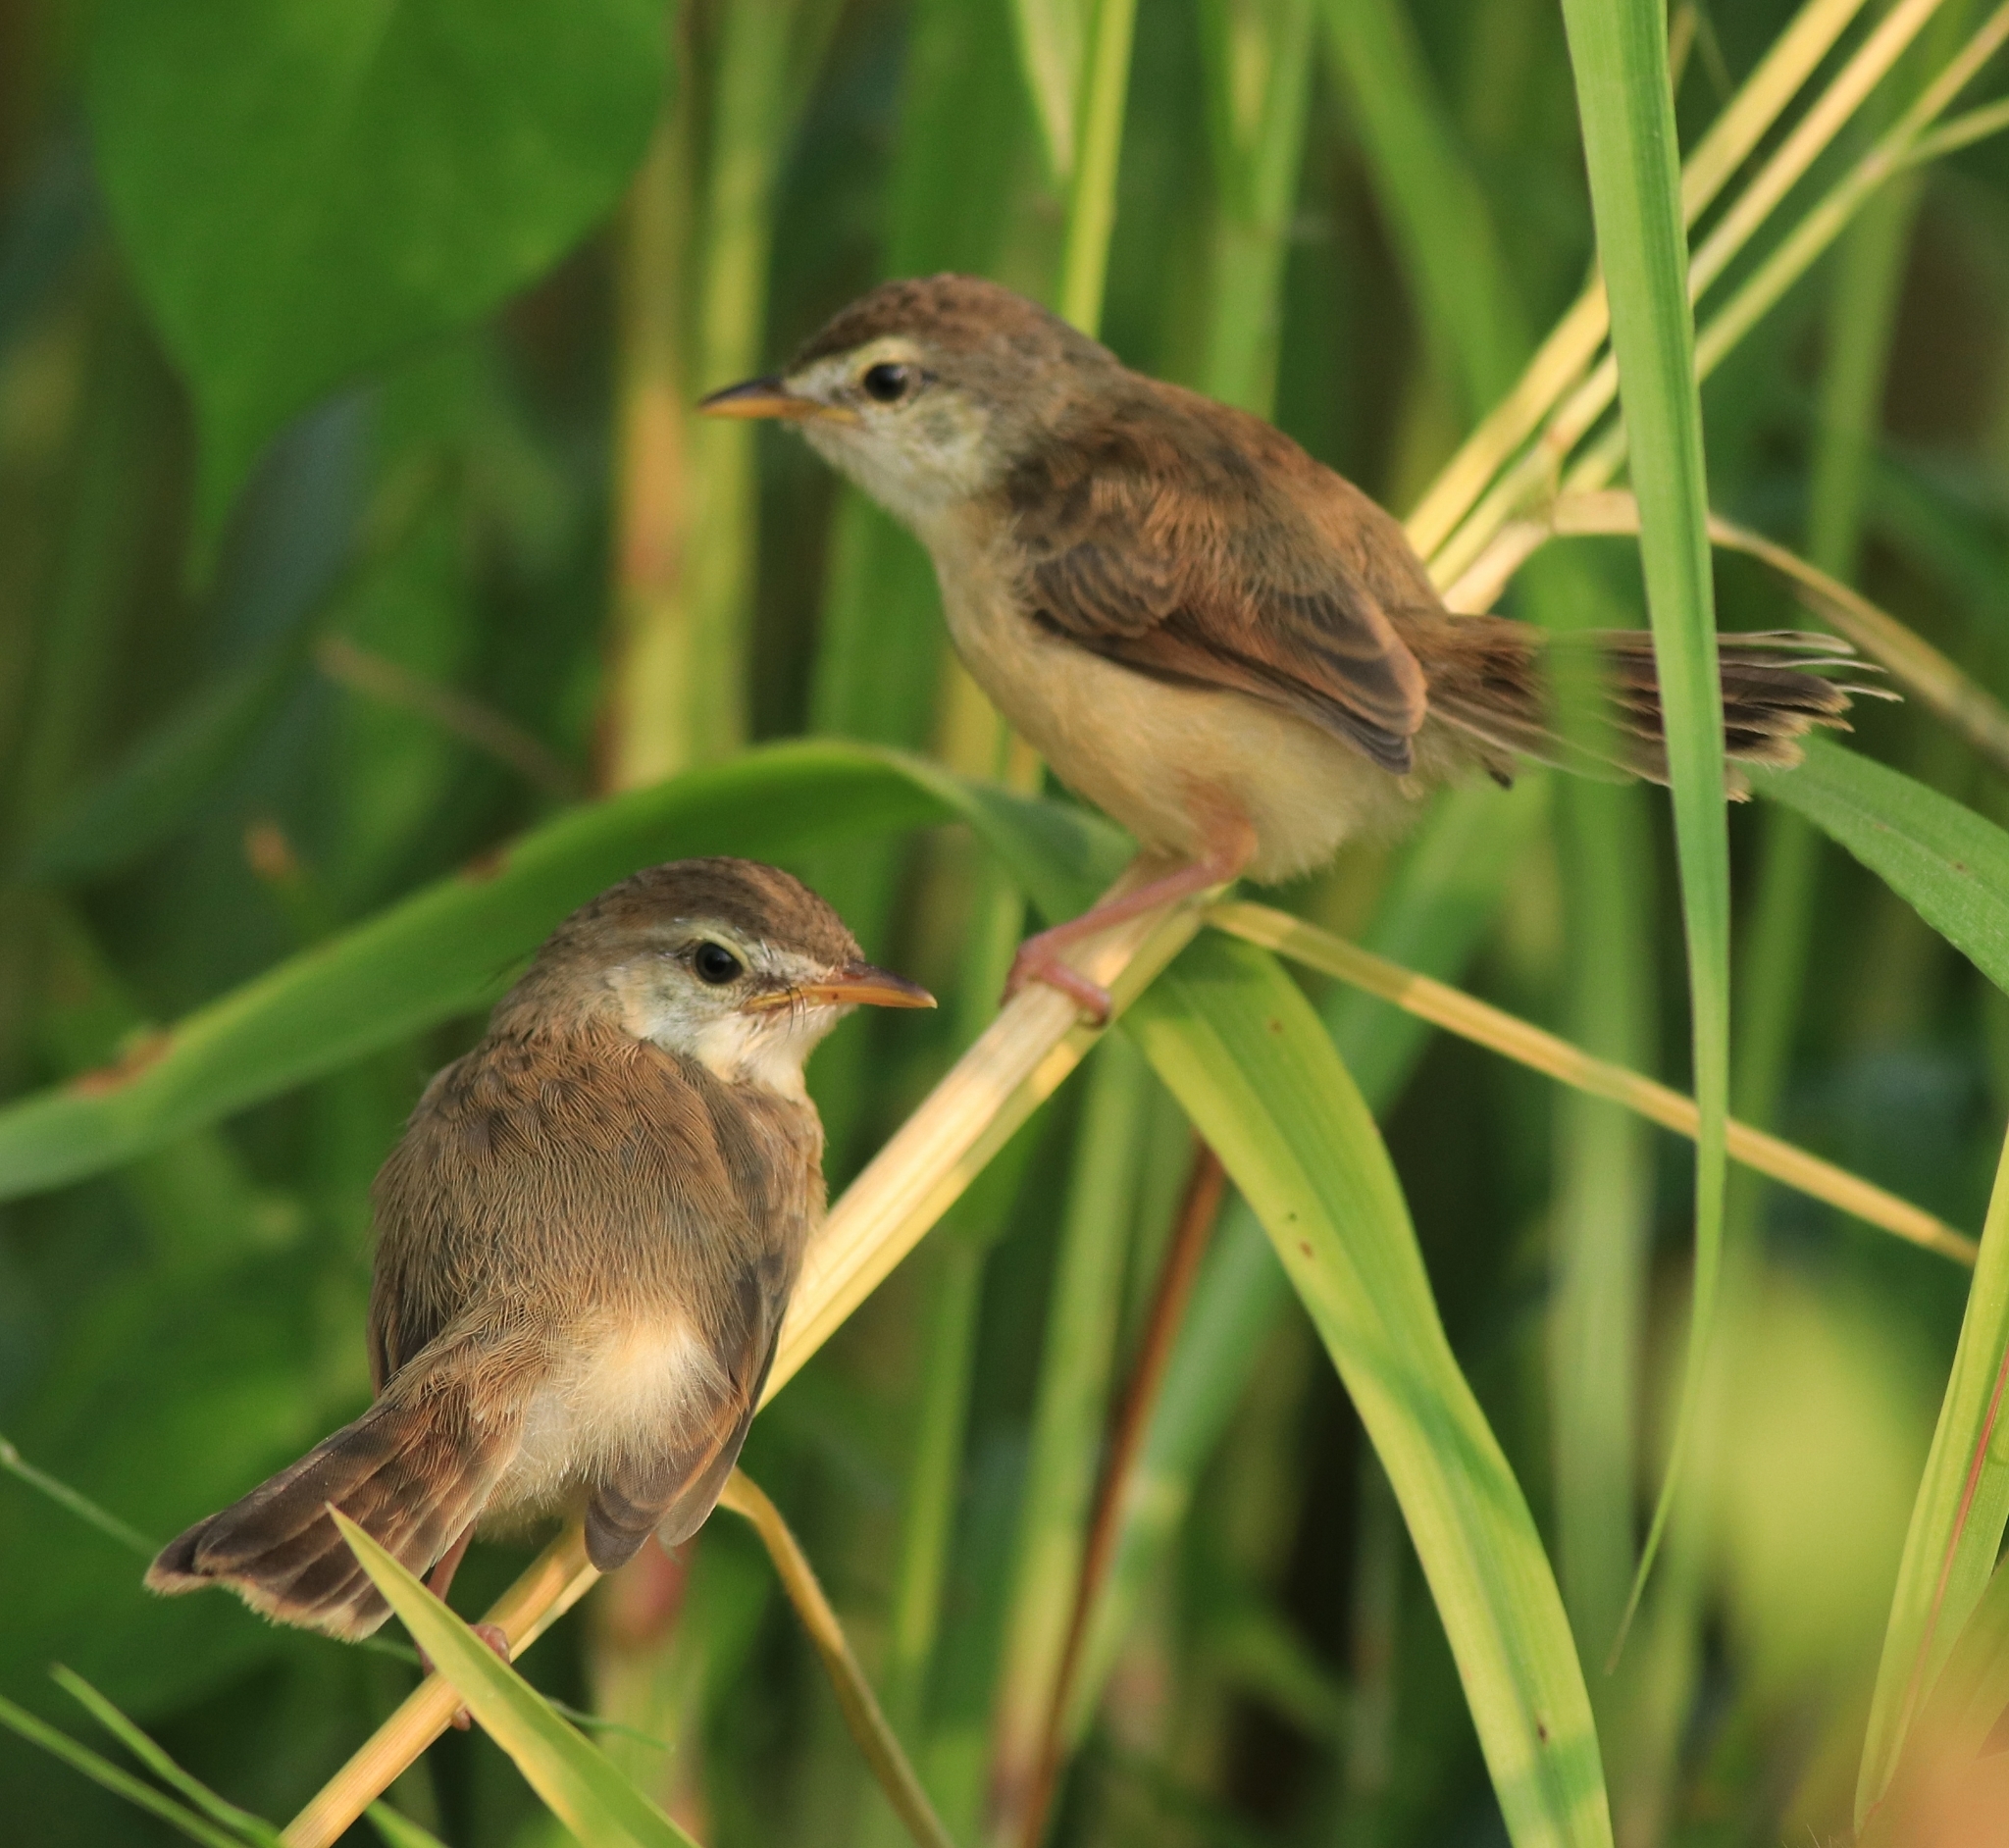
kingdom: Animalia
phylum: Chordata
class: Aves
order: Passeriformes
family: Cisticolidae
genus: Prinia
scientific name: Prinia inornata
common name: Plain prinia
